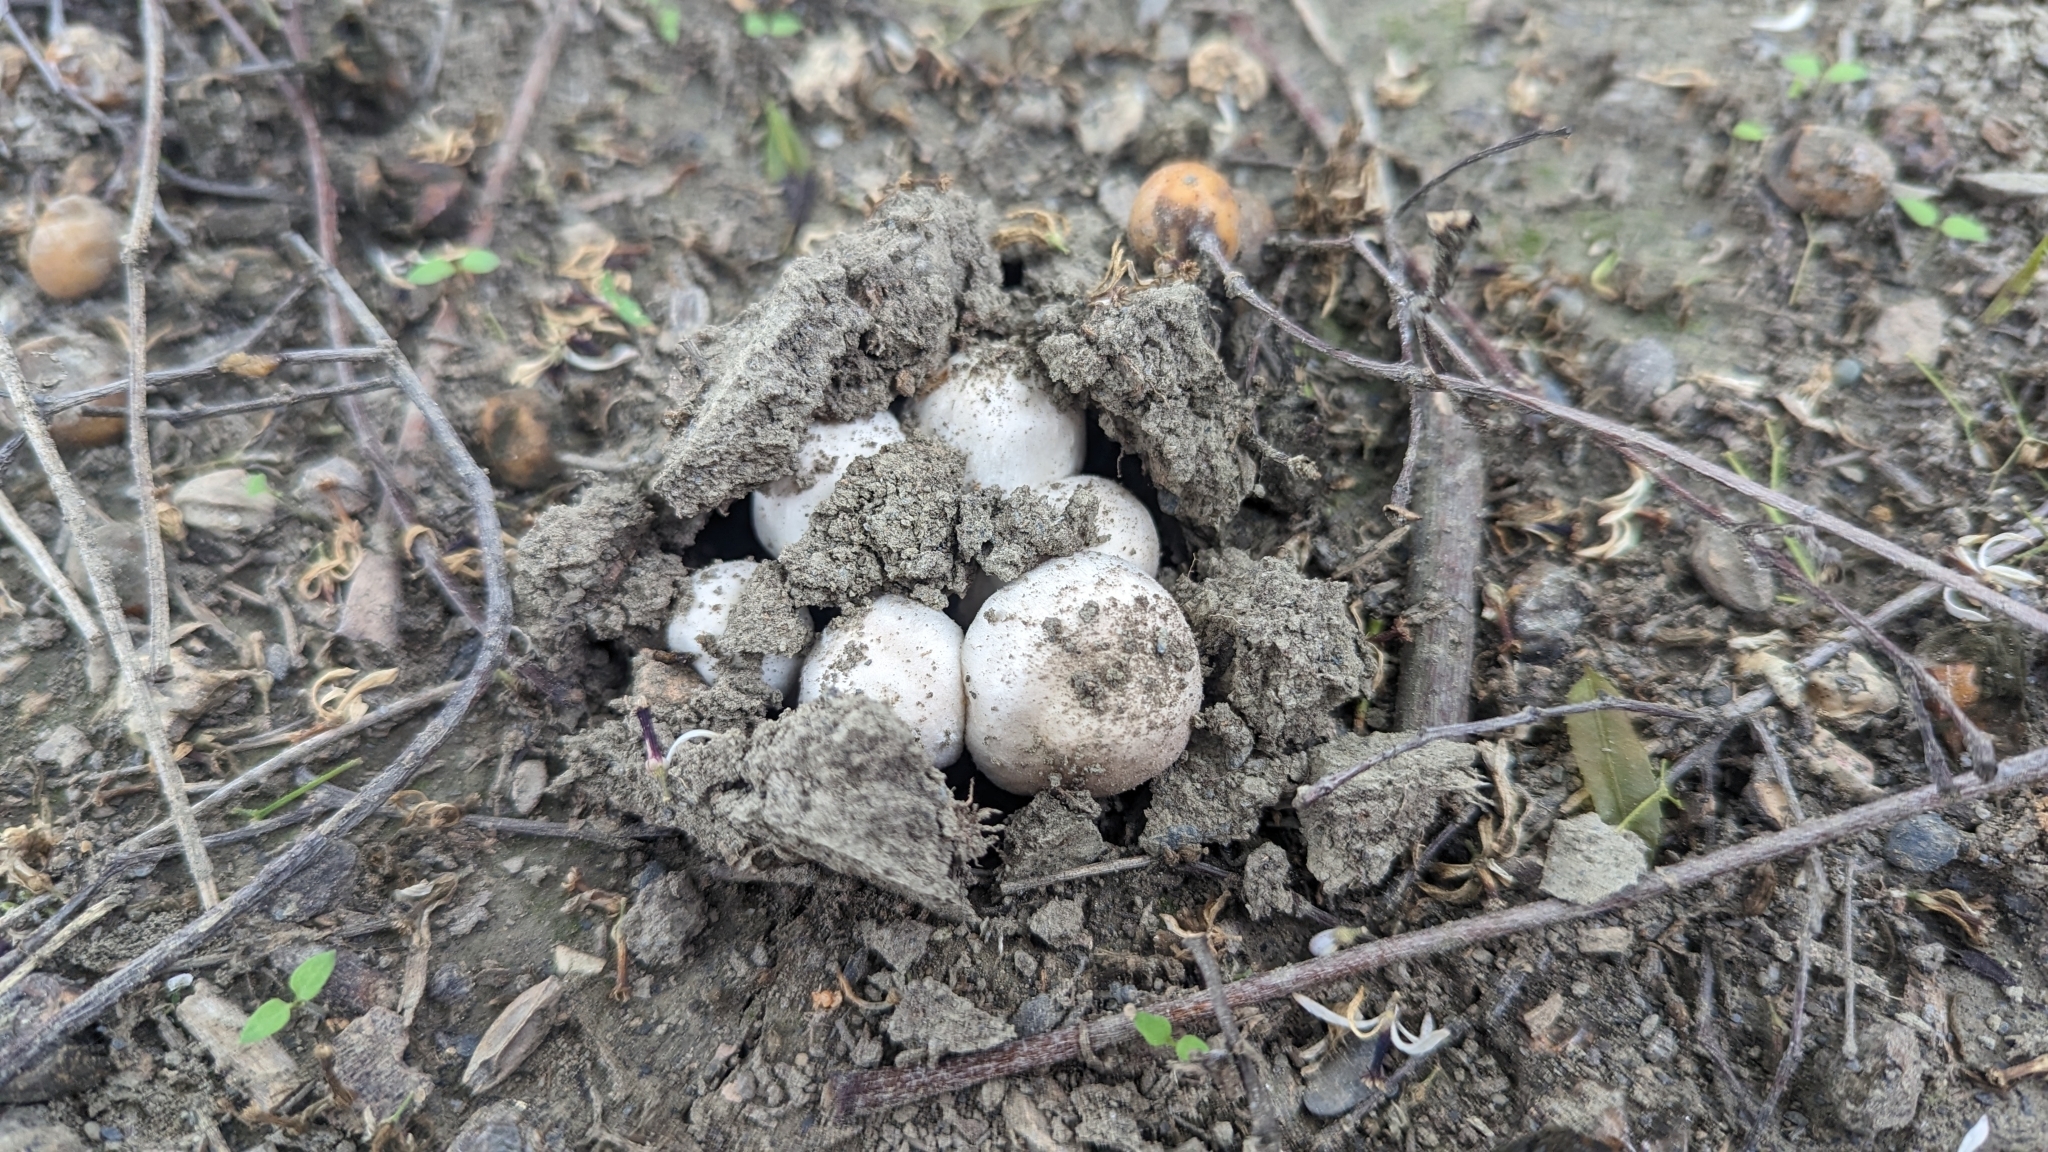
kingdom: Fungi
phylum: Basidiomycota
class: Agaricomycetes
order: Agaricales
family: Agaricaceae
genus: Agaricus
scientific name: Agaricus campestris
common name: Field mushroom
